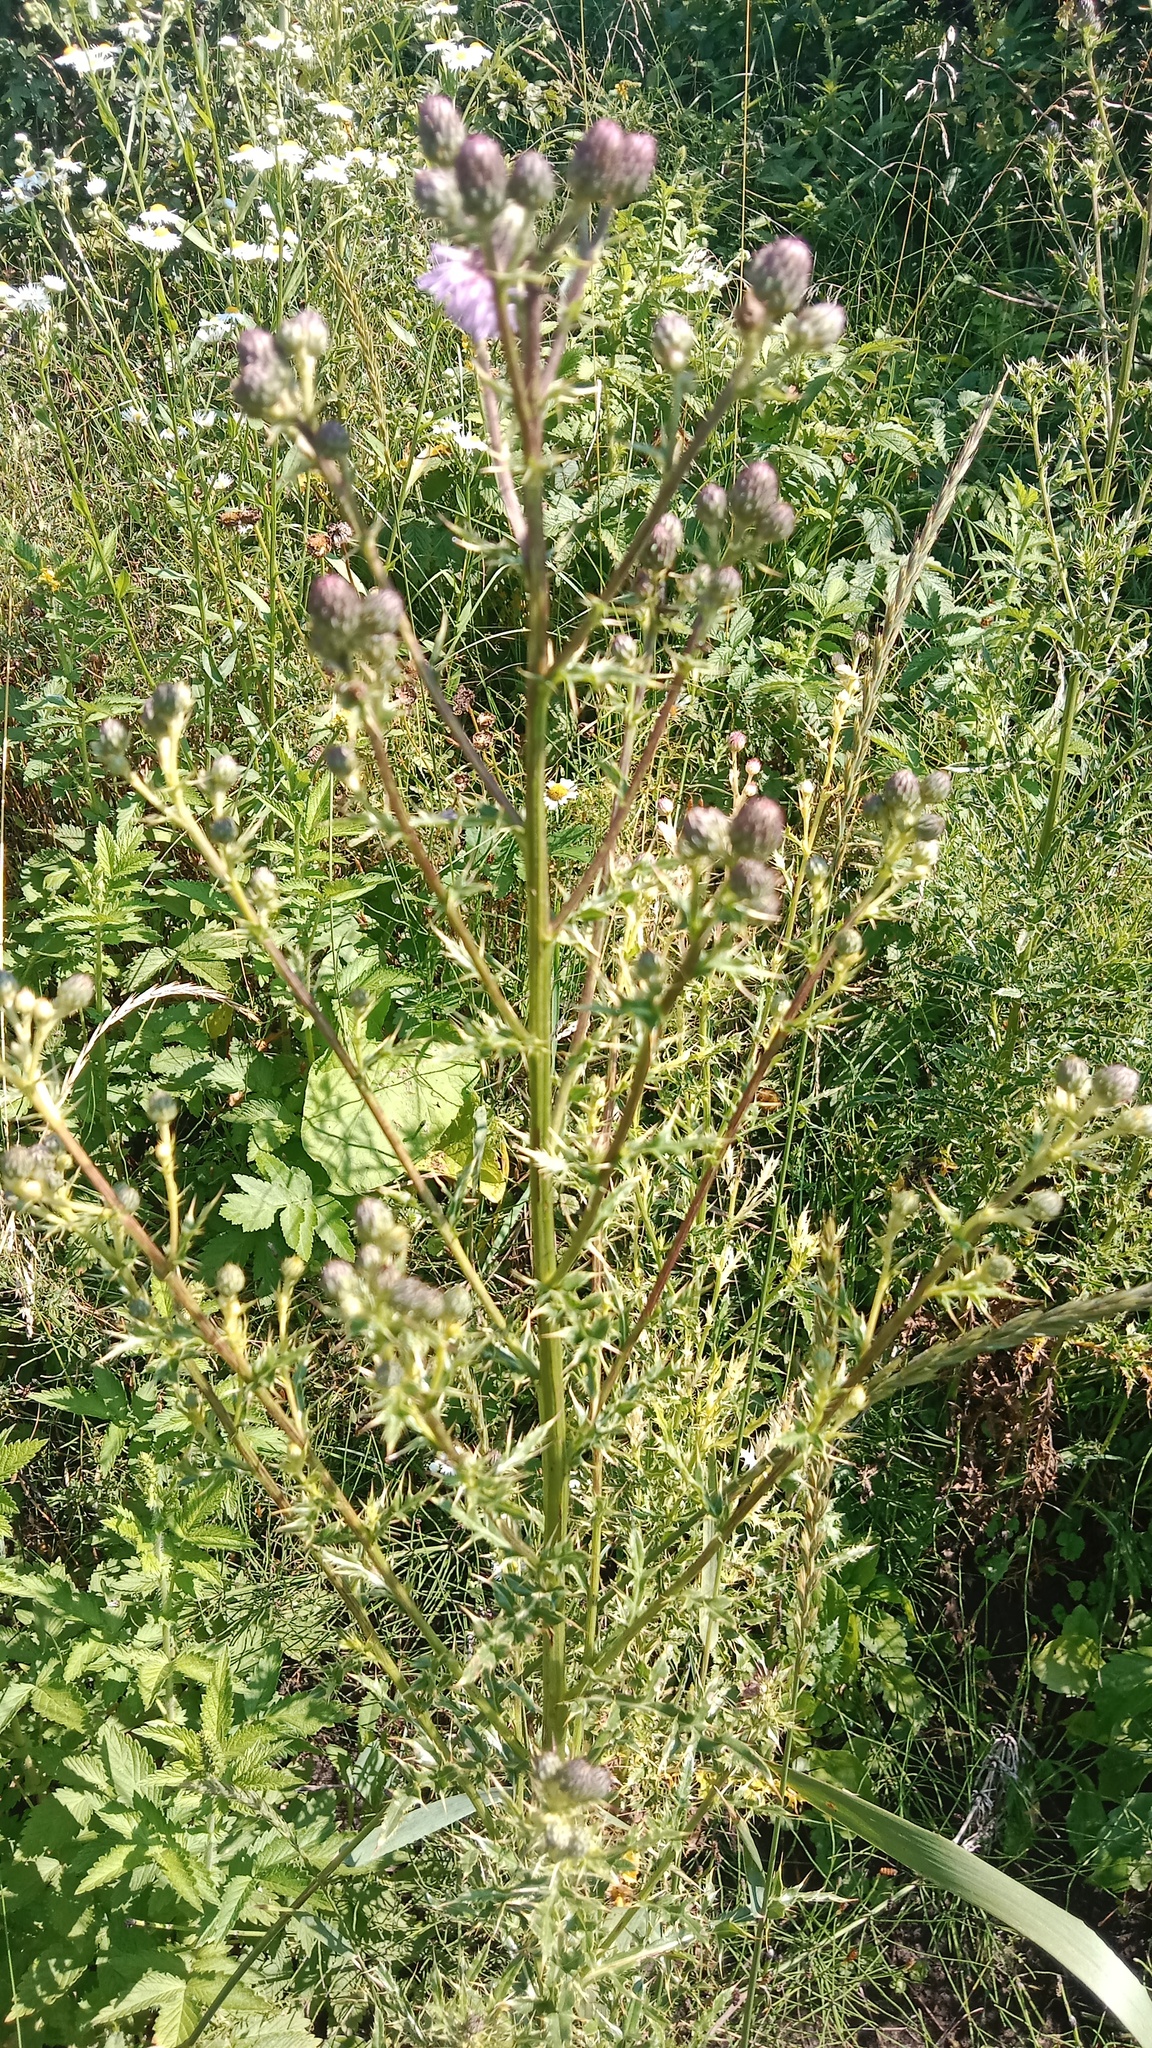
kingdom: Plantae
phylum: Tracheophyta
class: Magnoliopsida
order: Asterales
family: Asteraceae
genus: Cirsium
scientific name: Cirsium arvense
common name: Creeping thistle
